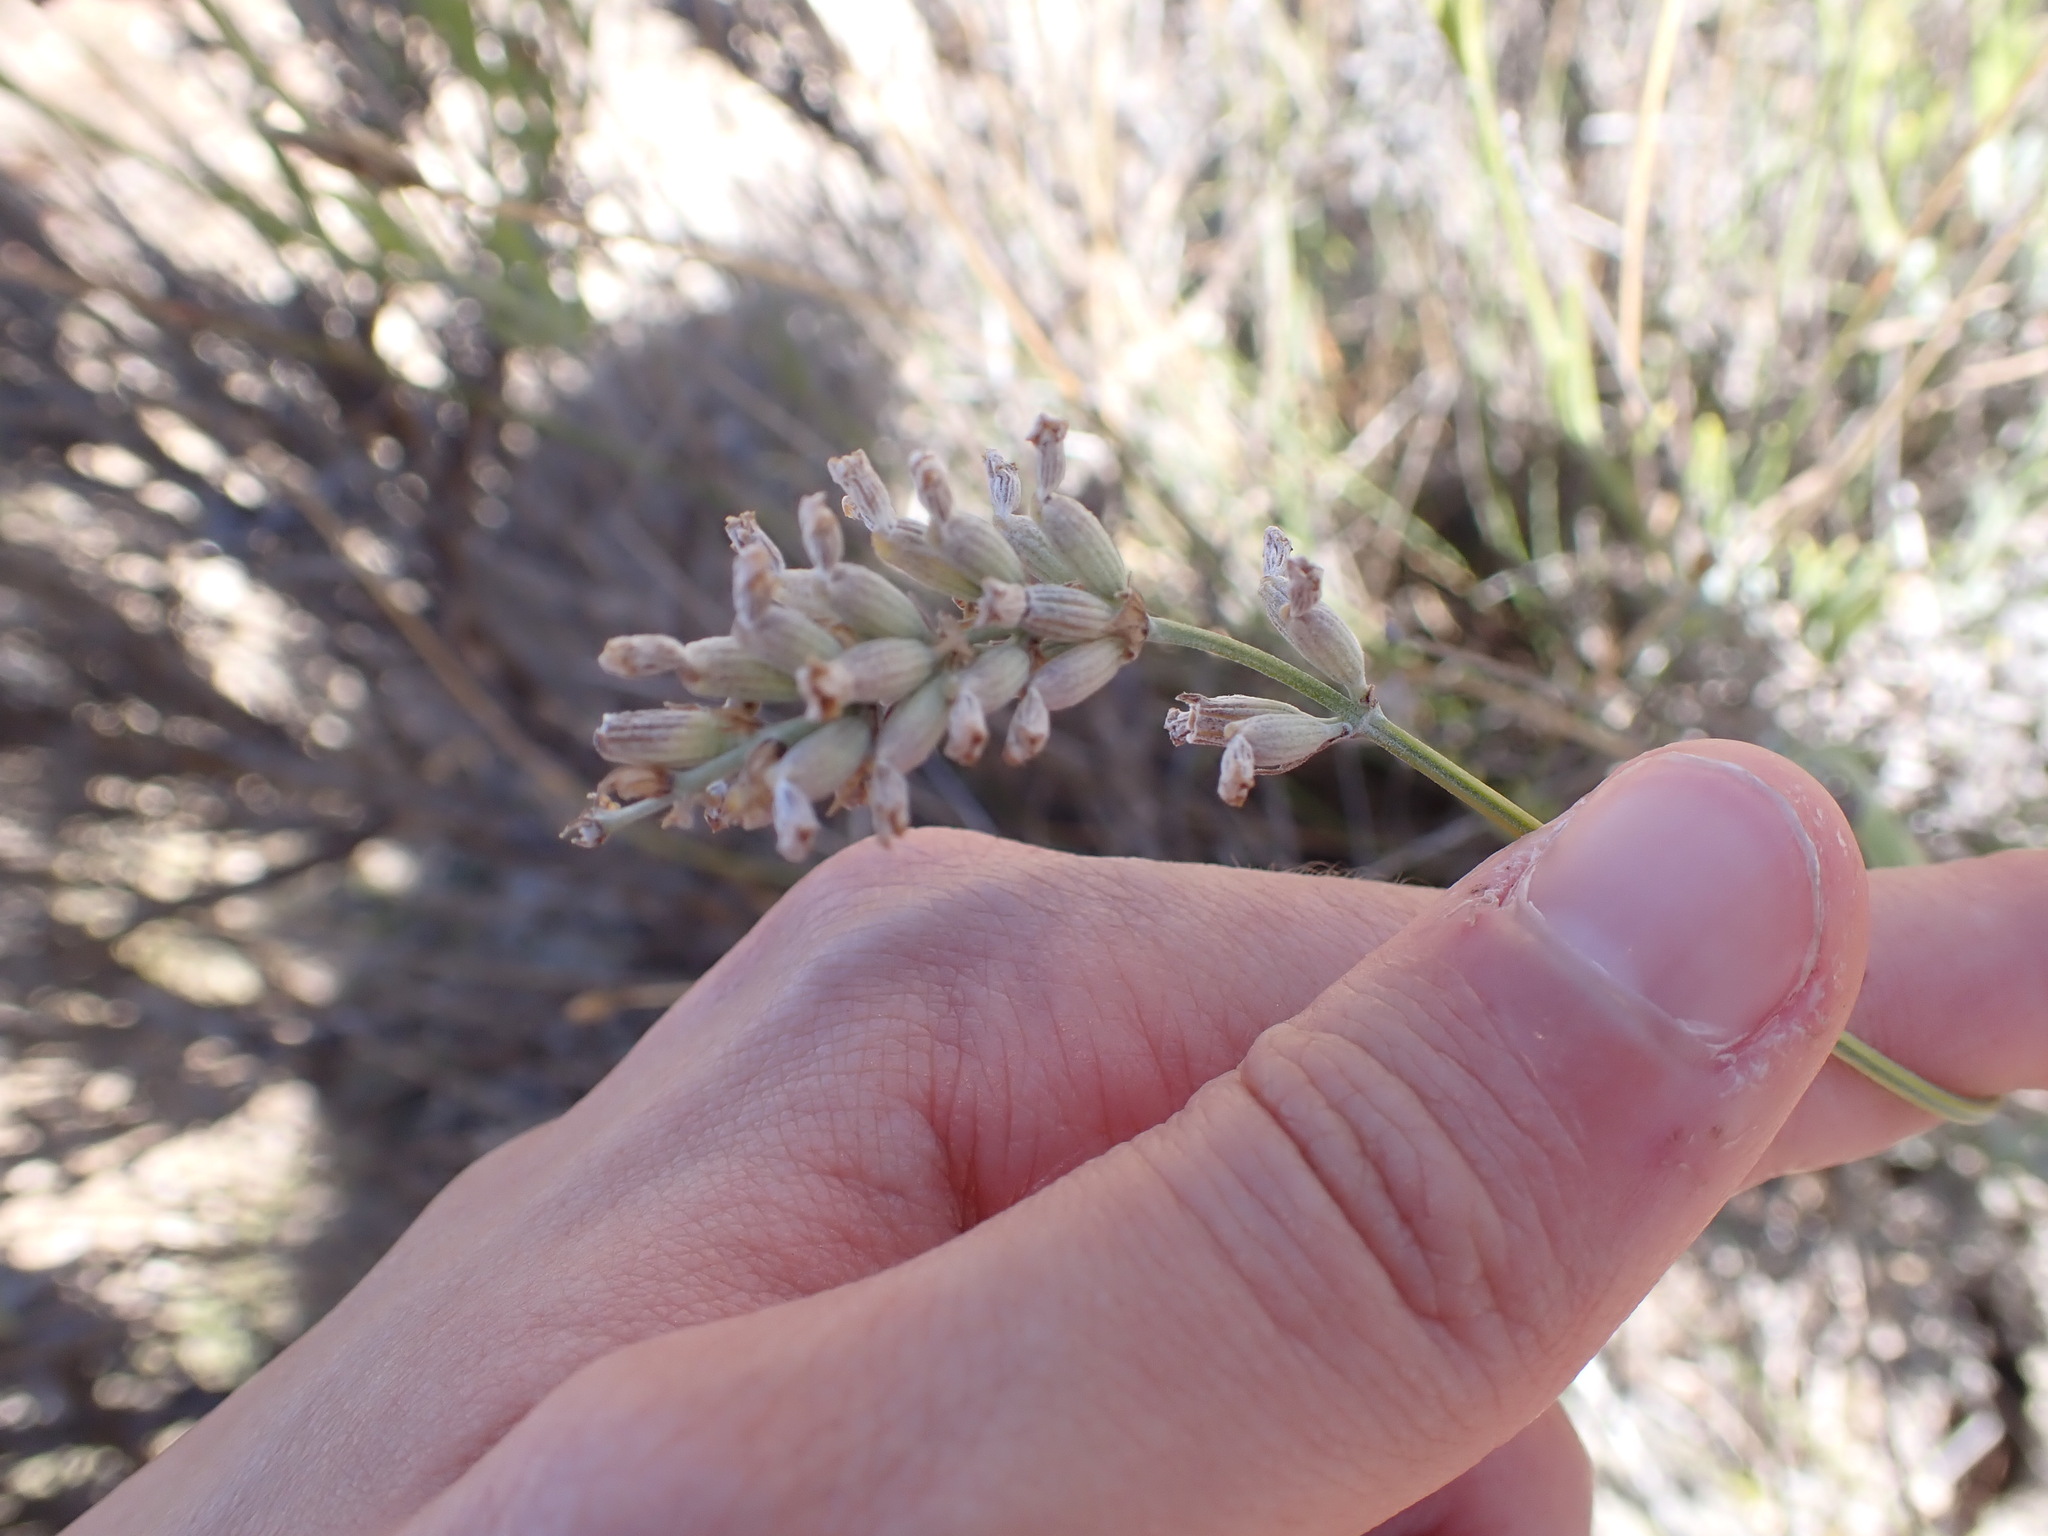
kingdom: Plantae
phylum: Tracheophyta
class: Magnoliopsida
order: Lamiales
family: Lamiaceae
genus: Lavandula
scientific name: Lavandula angustifolia
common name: Garden lavender
